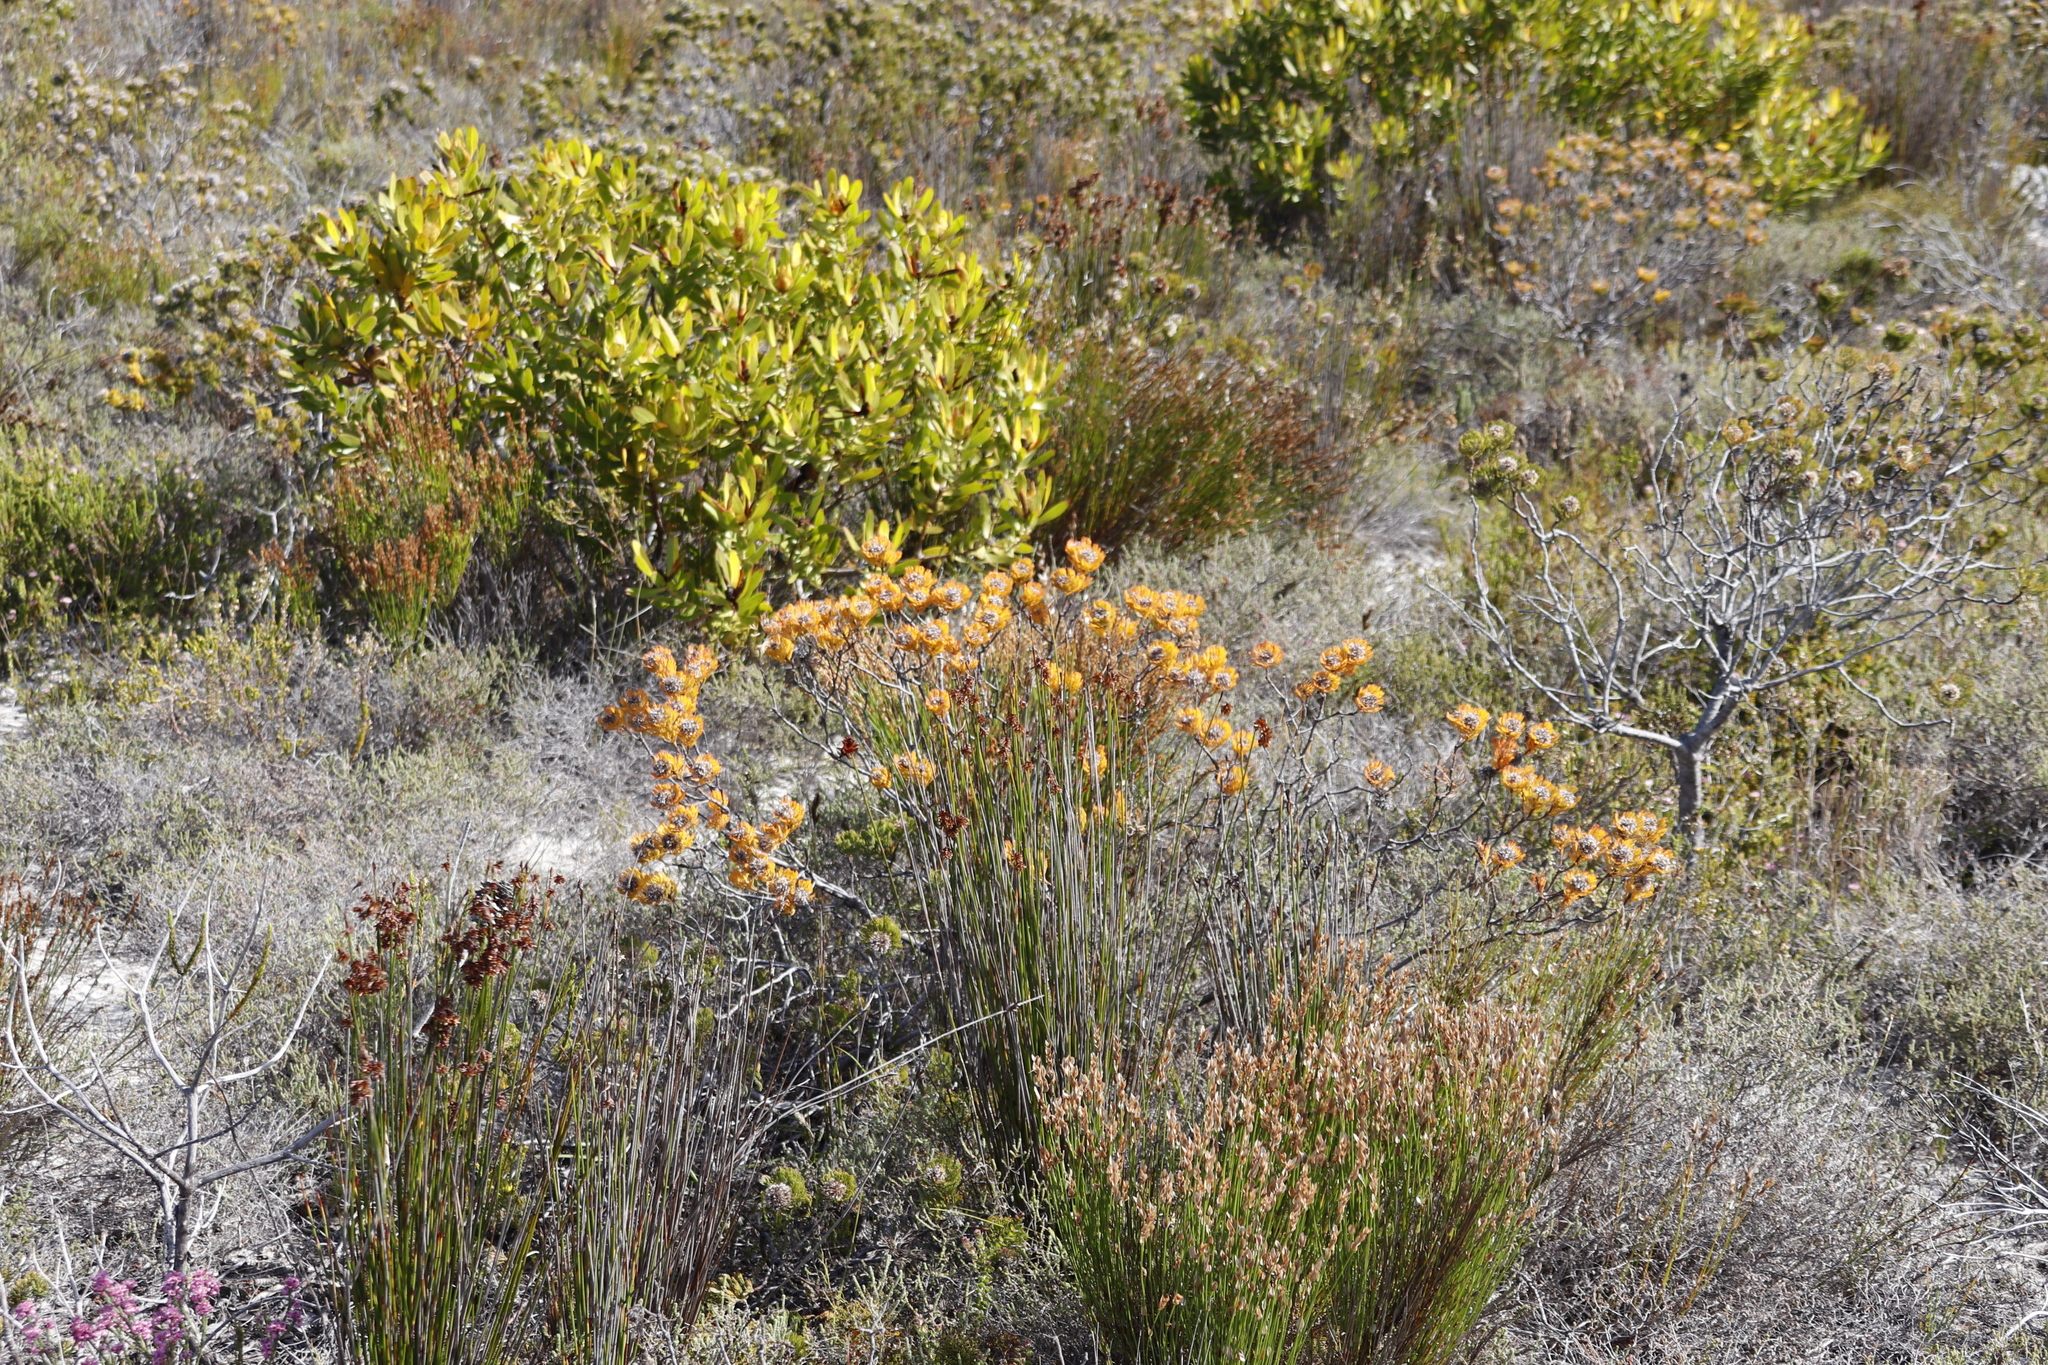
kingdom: Plantae
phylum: Tracheophyta
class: Magnoliopsida
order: Proteales
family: Proteaceae
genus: Serruria
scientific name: Serruria villosa
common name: Golden spiderhead
